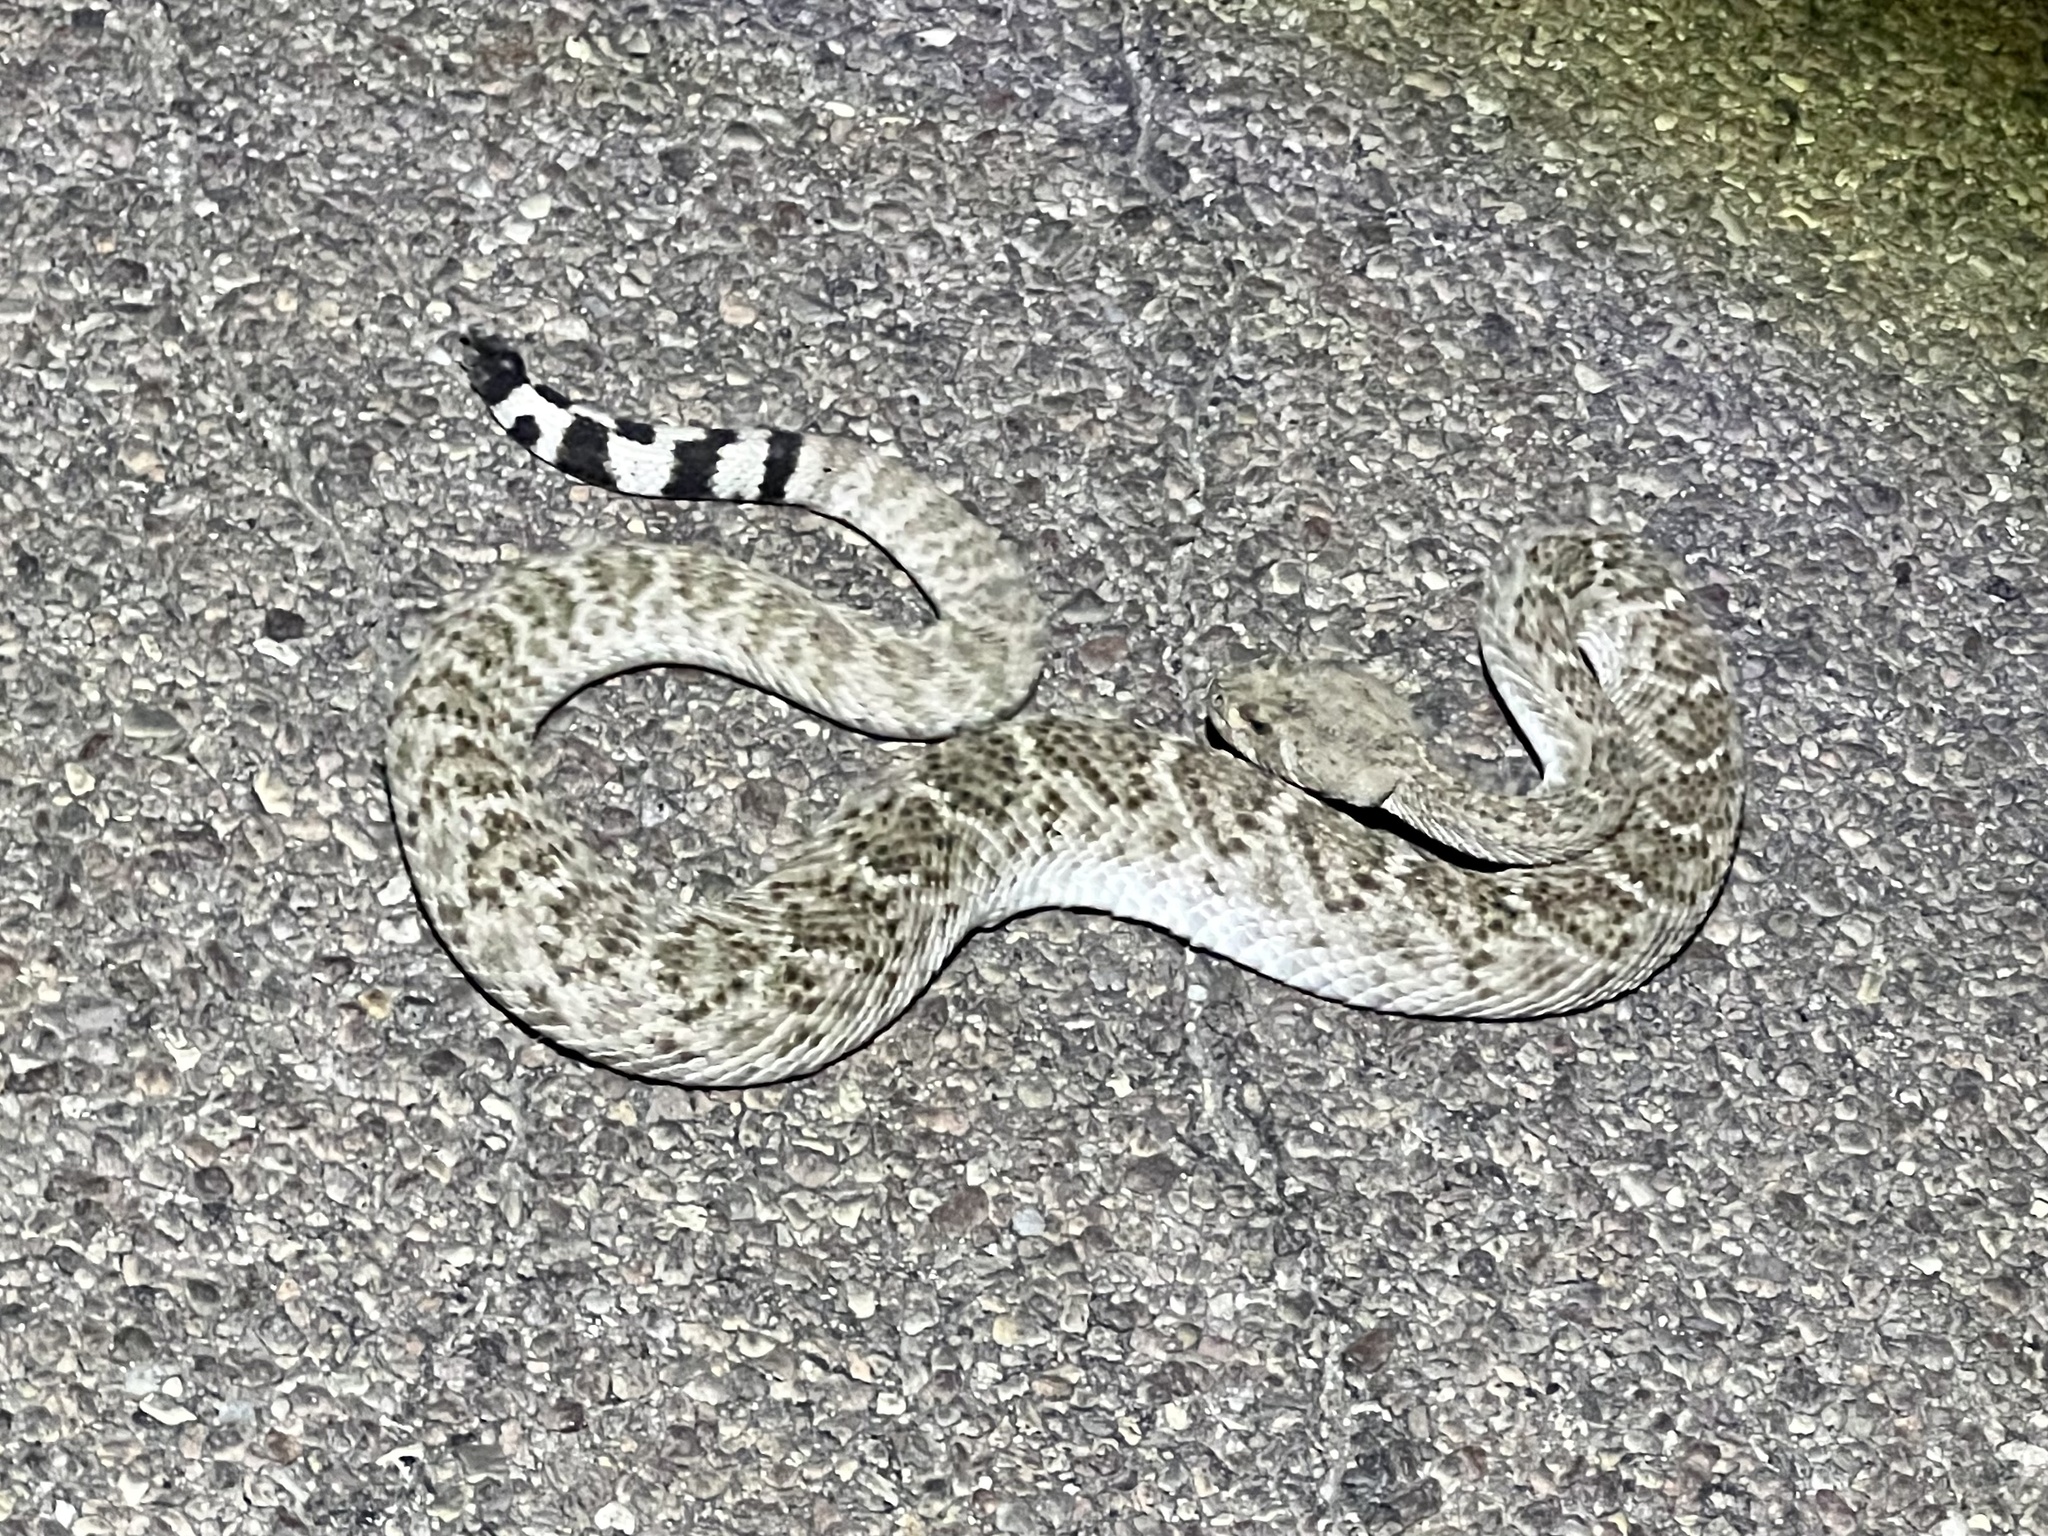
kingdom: Animalia
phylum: Chordata
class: Squamata
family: Viperidae
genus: Crotalus
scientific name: Crotalus atrox
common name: Western diamond-backed rattlesnake
